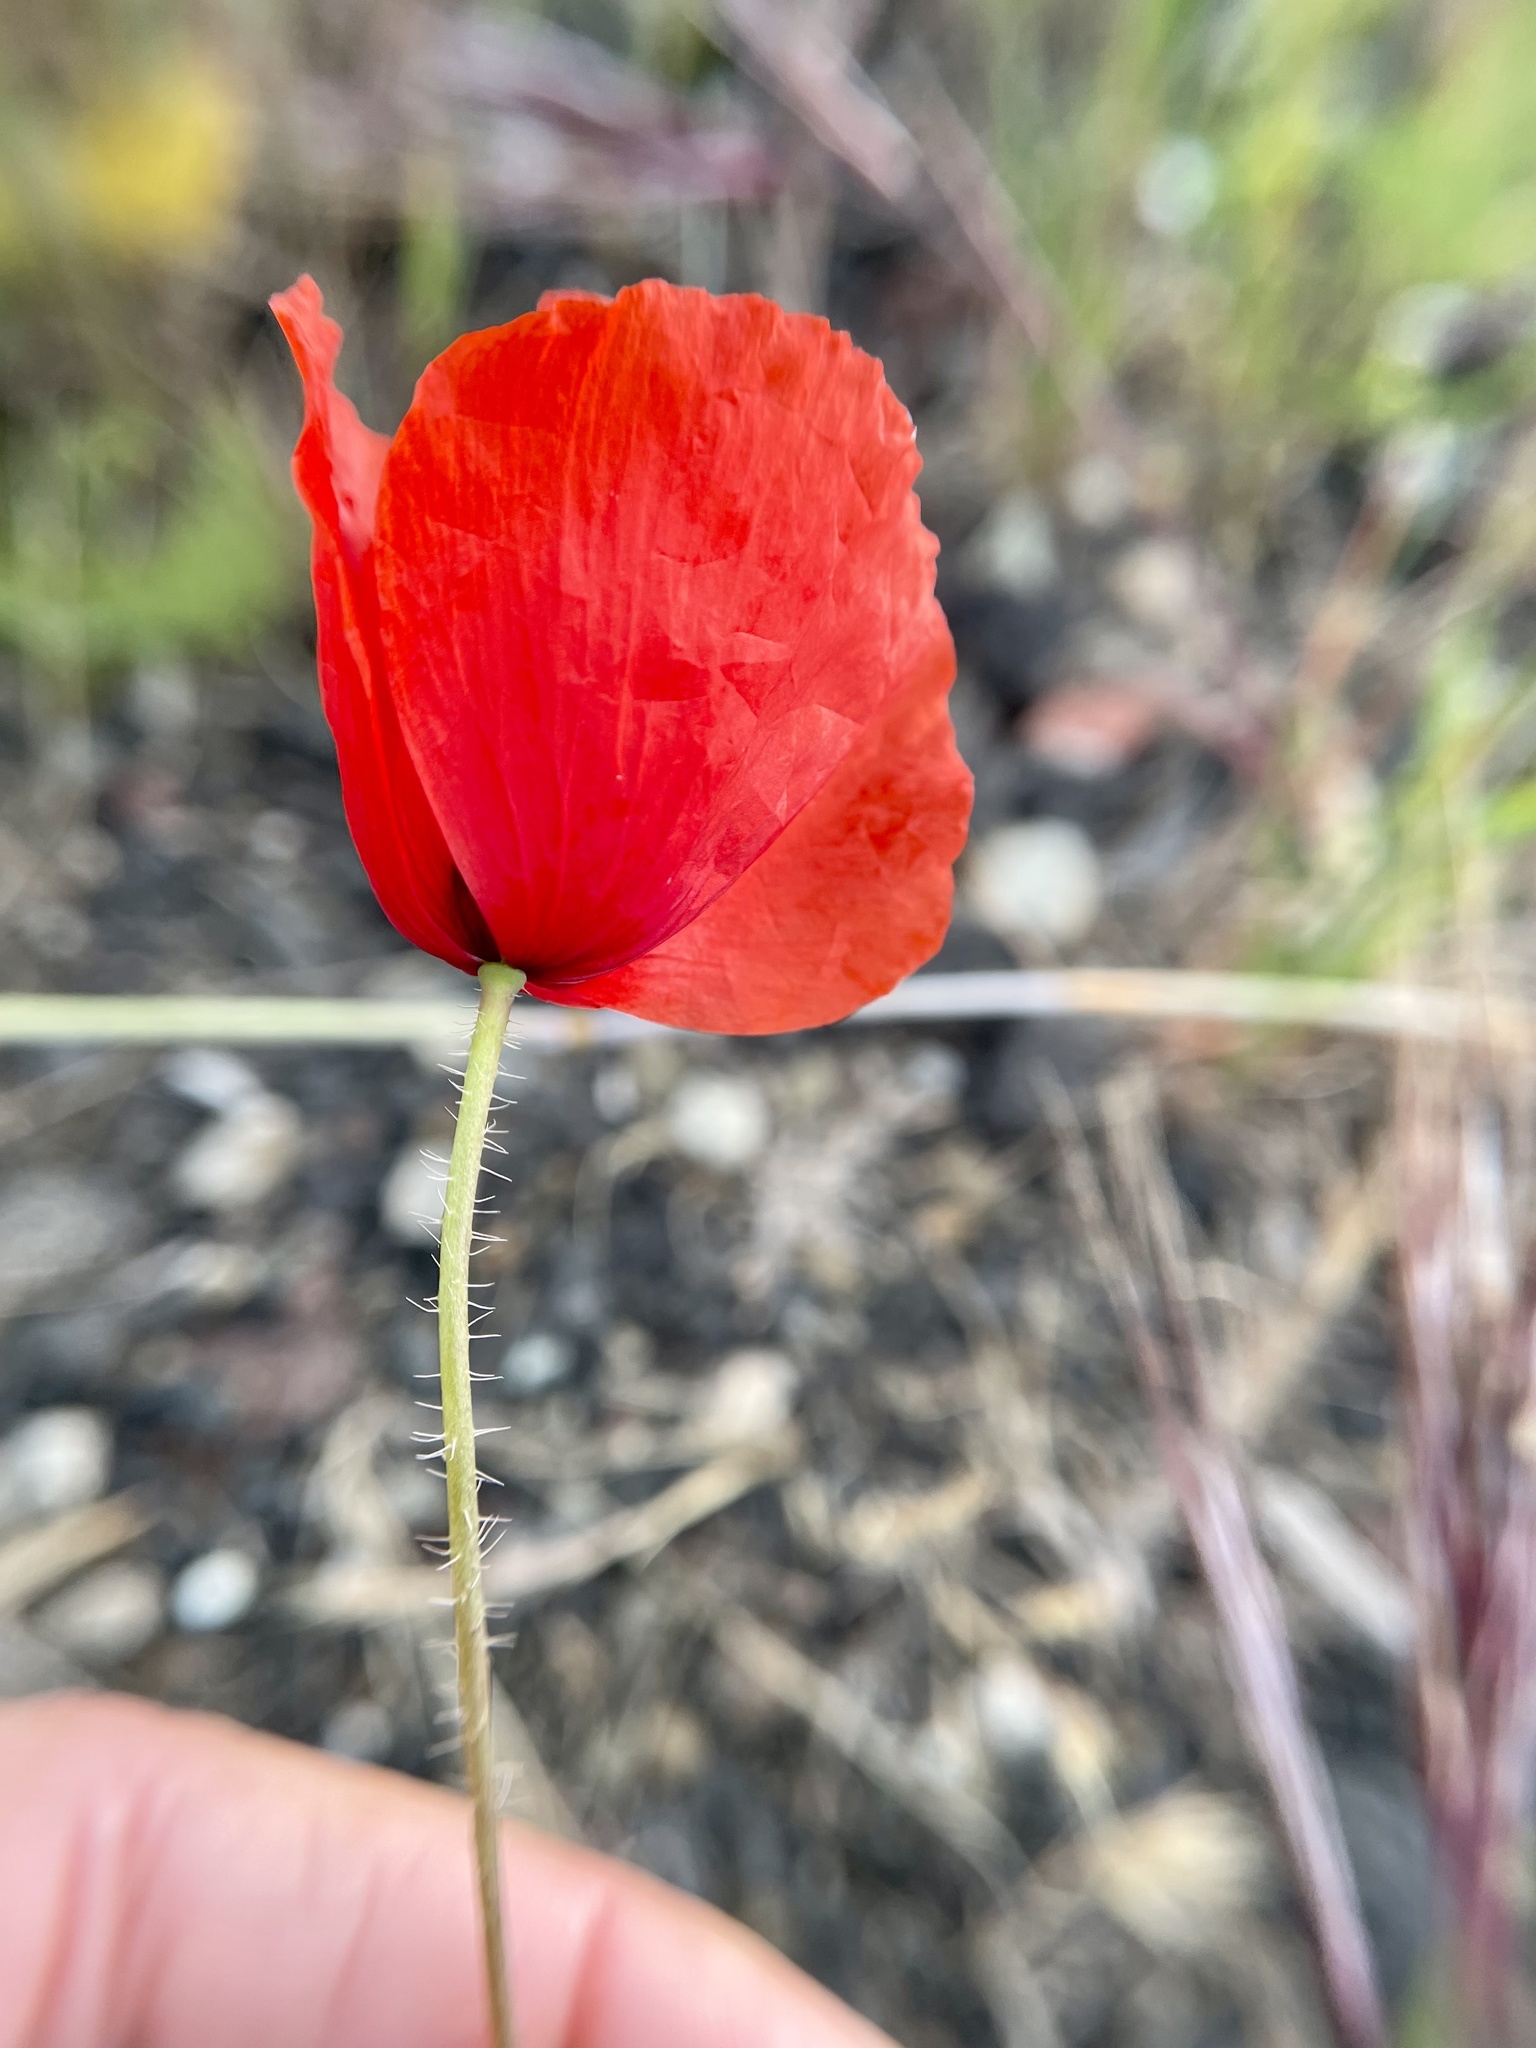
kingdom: Plantae
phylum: Tracheophyta
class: Magnoliopsida
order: Ranunculales
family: Papaveraceae
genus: Papaver
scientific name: Papaver rhoeas
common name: Corn poppy
